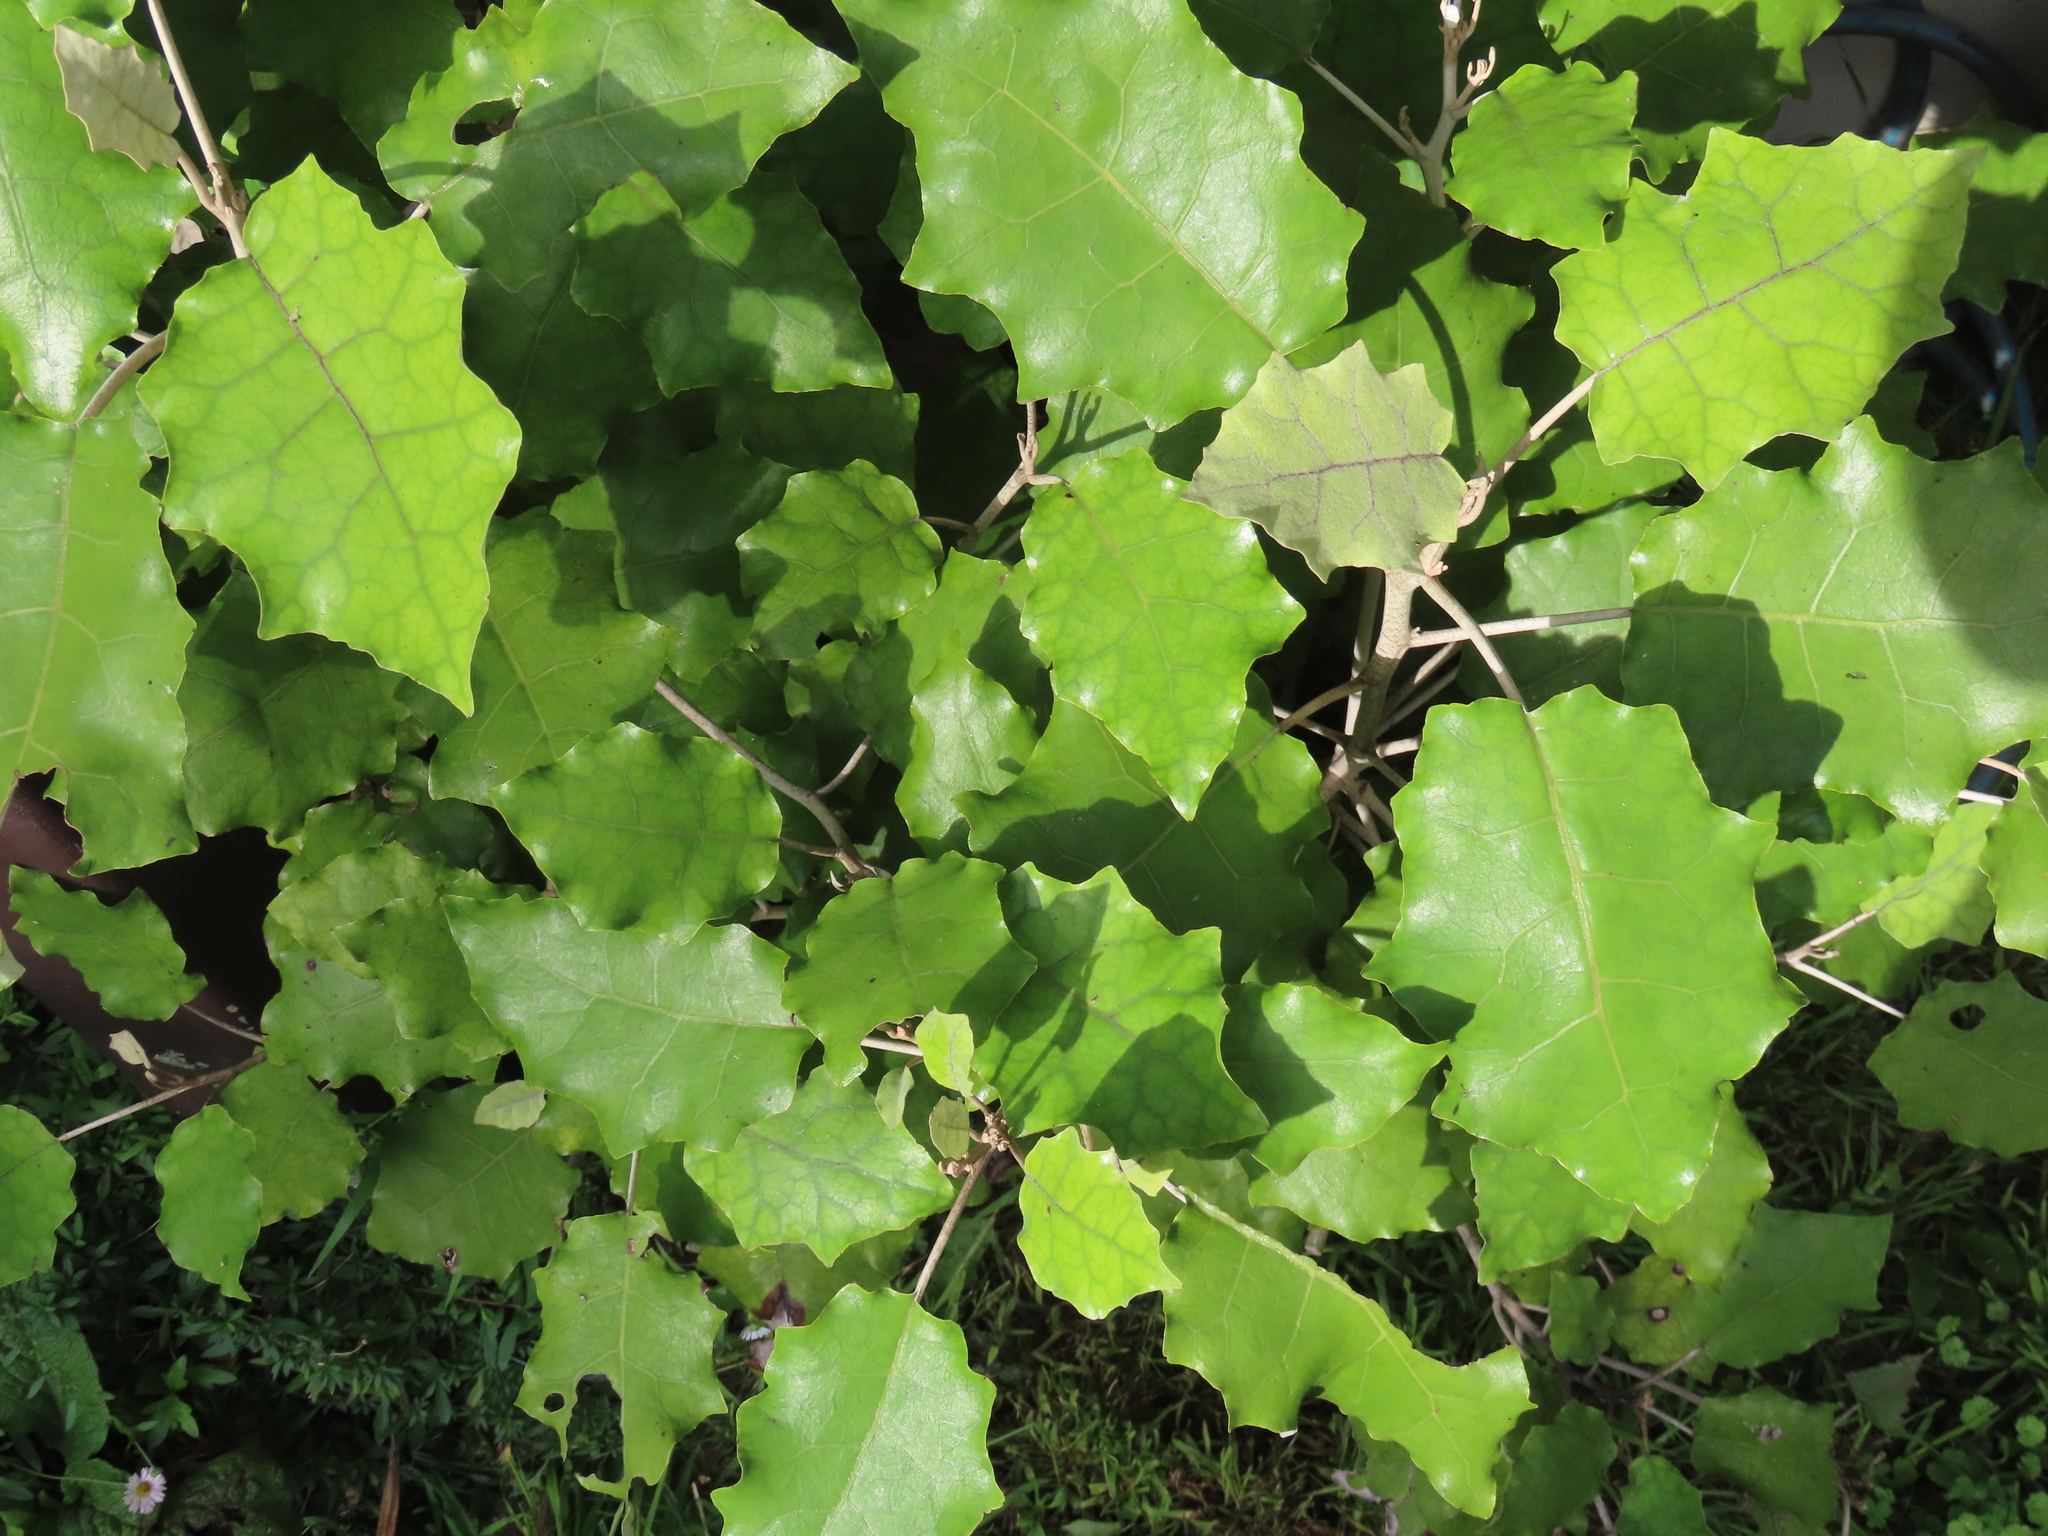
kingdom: Plantae
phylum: Tracheophyta
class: Magnoliopsida
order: Asterales
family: Asteraceae
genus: Brachyglottis
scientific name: Brachyglottis repanda
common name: Hedge ragwort
